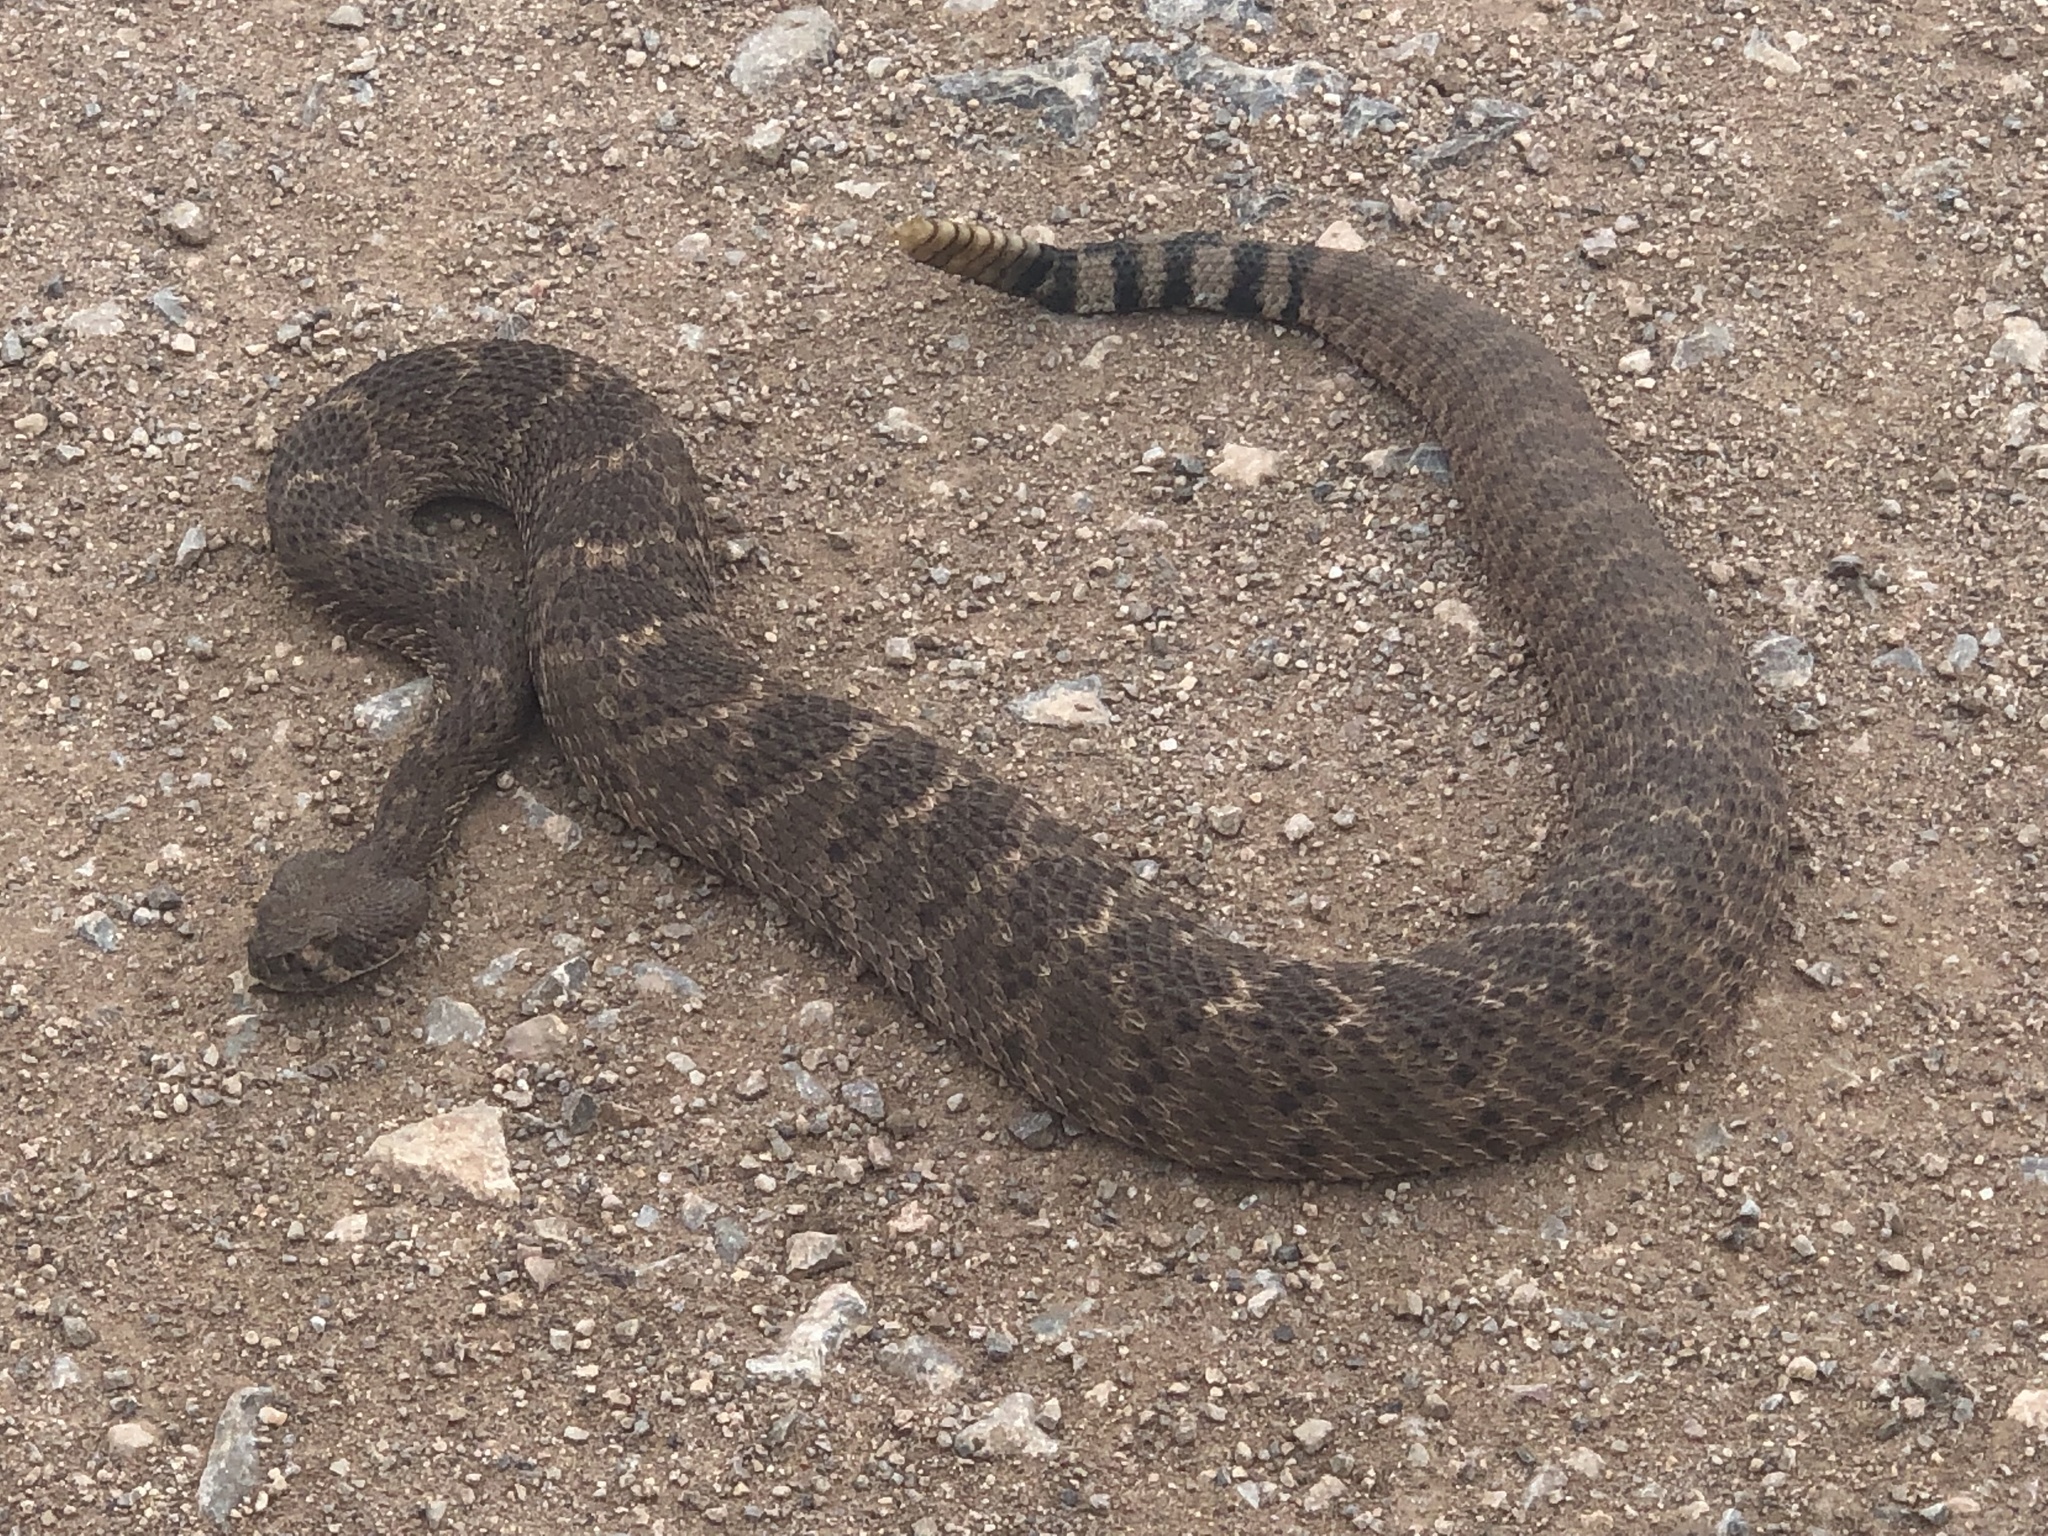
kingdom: Animalia
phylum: Chordata
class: Squamata
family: Viperidae
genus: Crotalus
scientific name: Crotalus atrox
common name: Western diamond-backed rattlesnake
